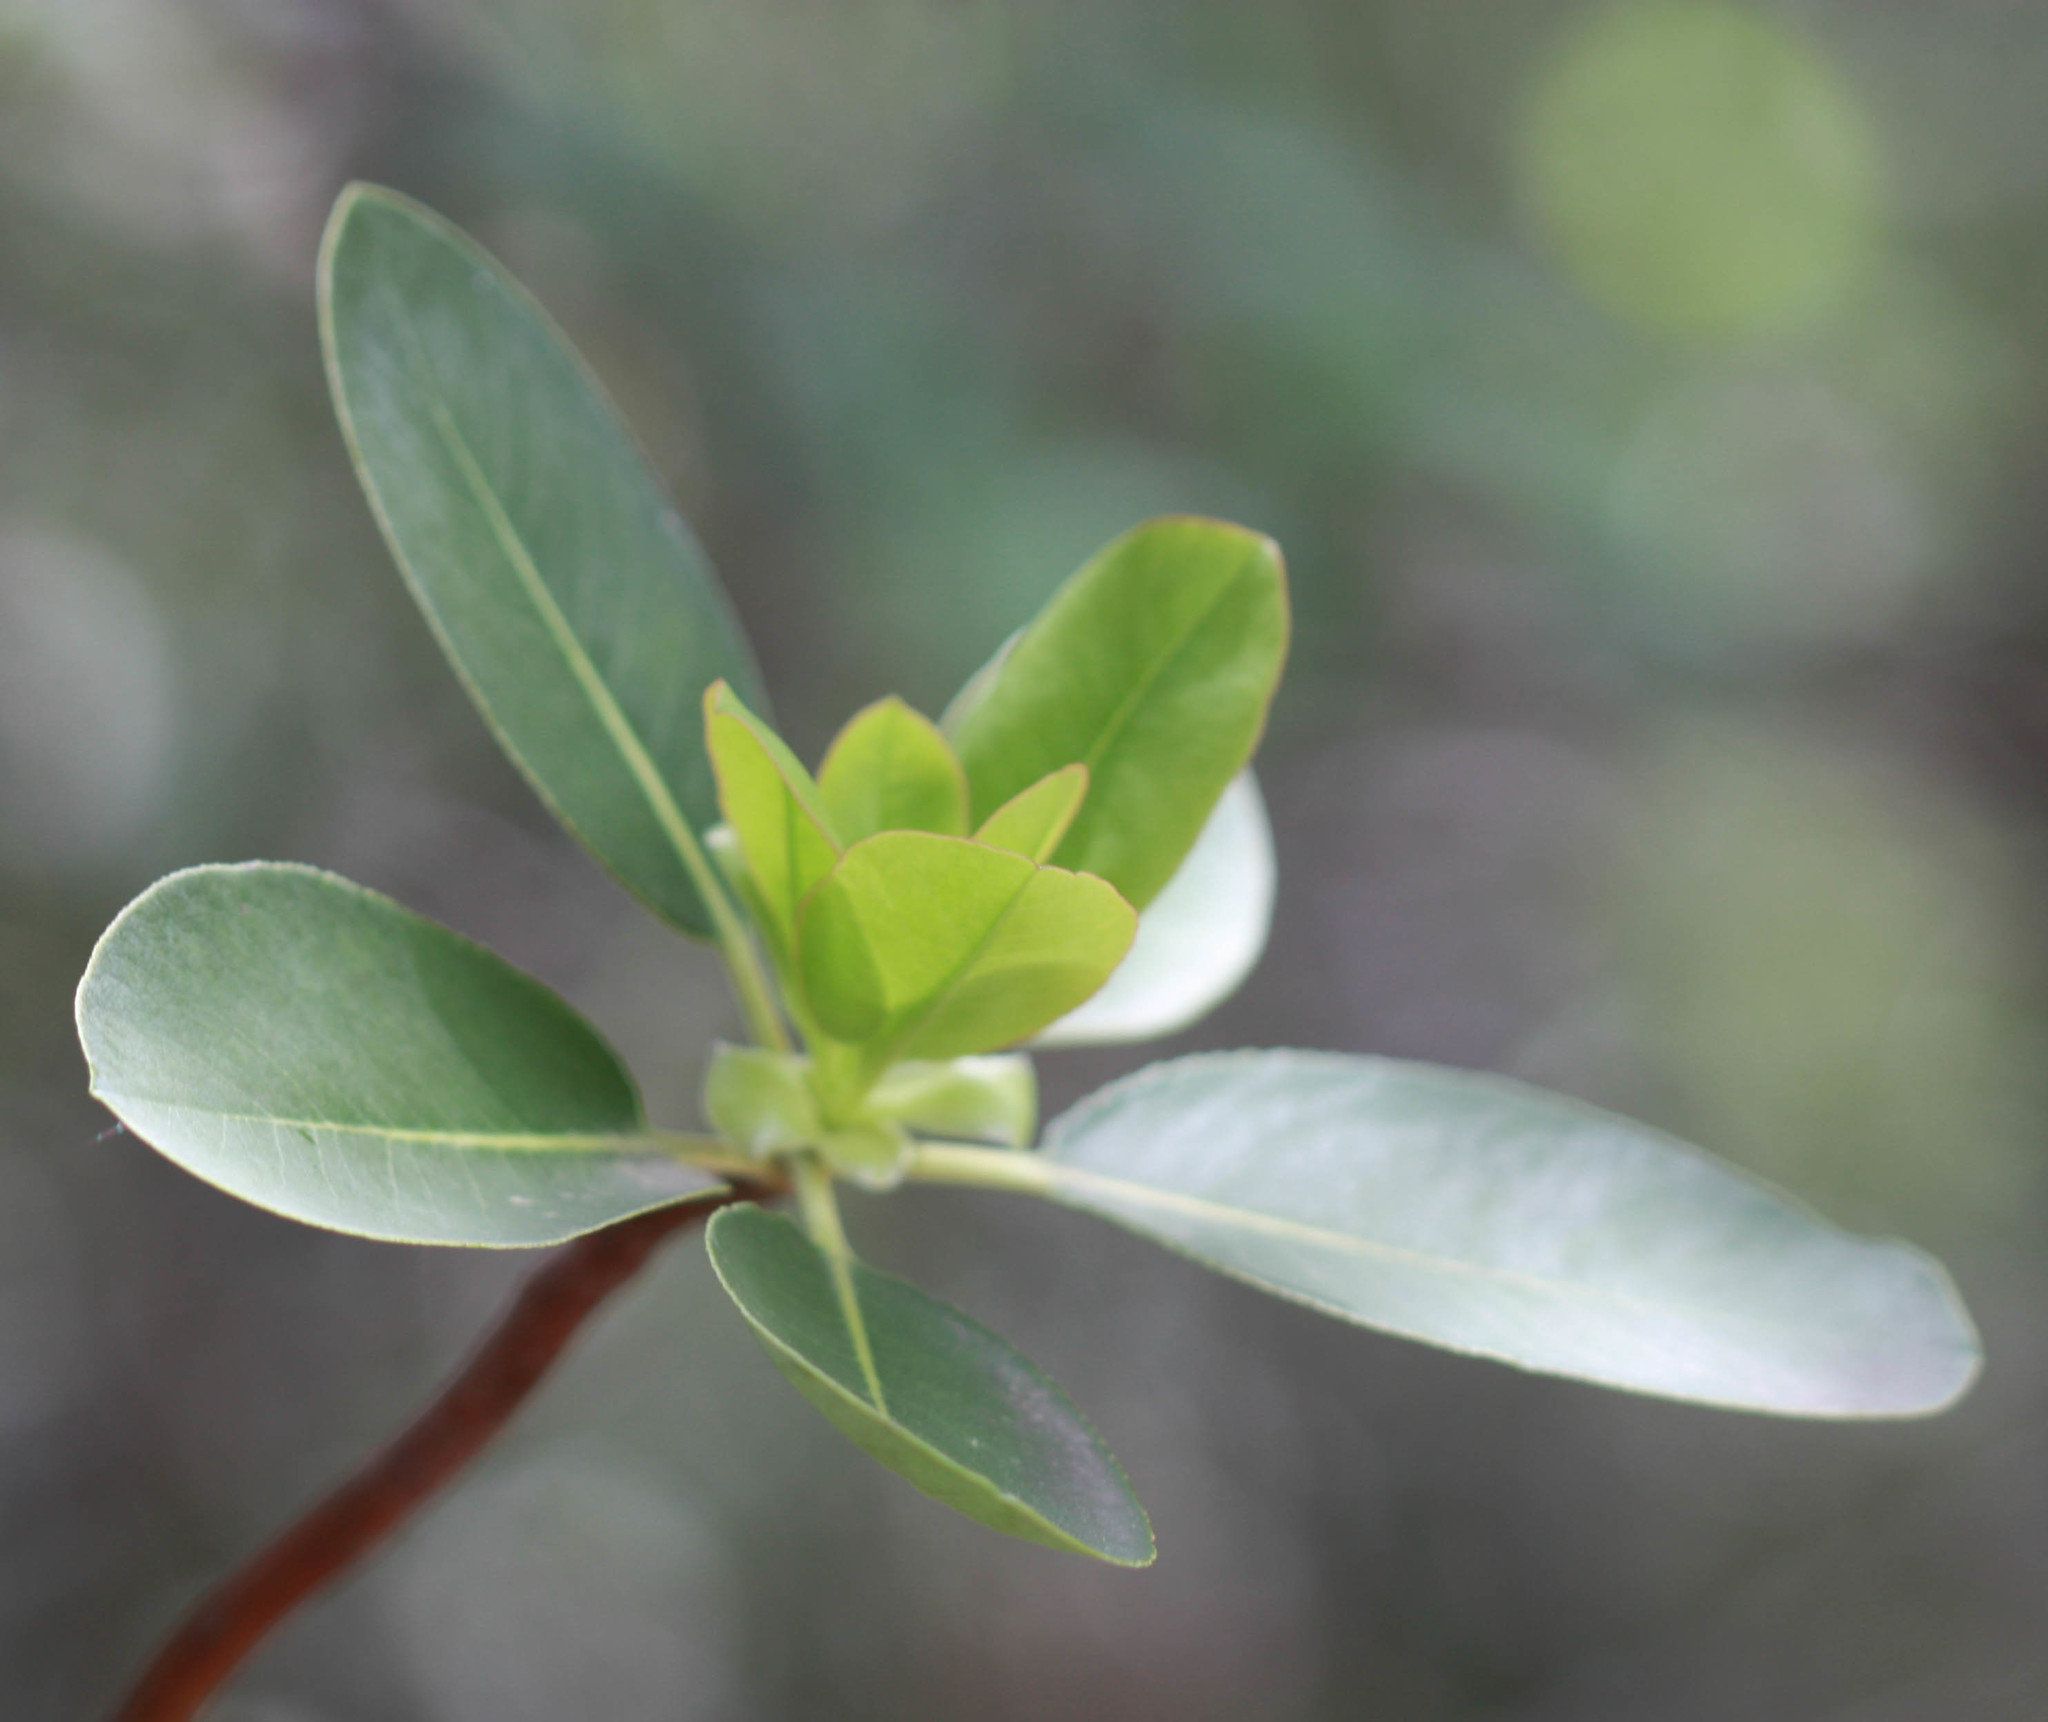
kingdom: Plantae
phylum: Tracheophyta
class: Magnoliopsida
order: Ericales
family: Ericaceae
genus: Arbutus
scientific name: Arbutus menziesii
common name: Pacific madrone
